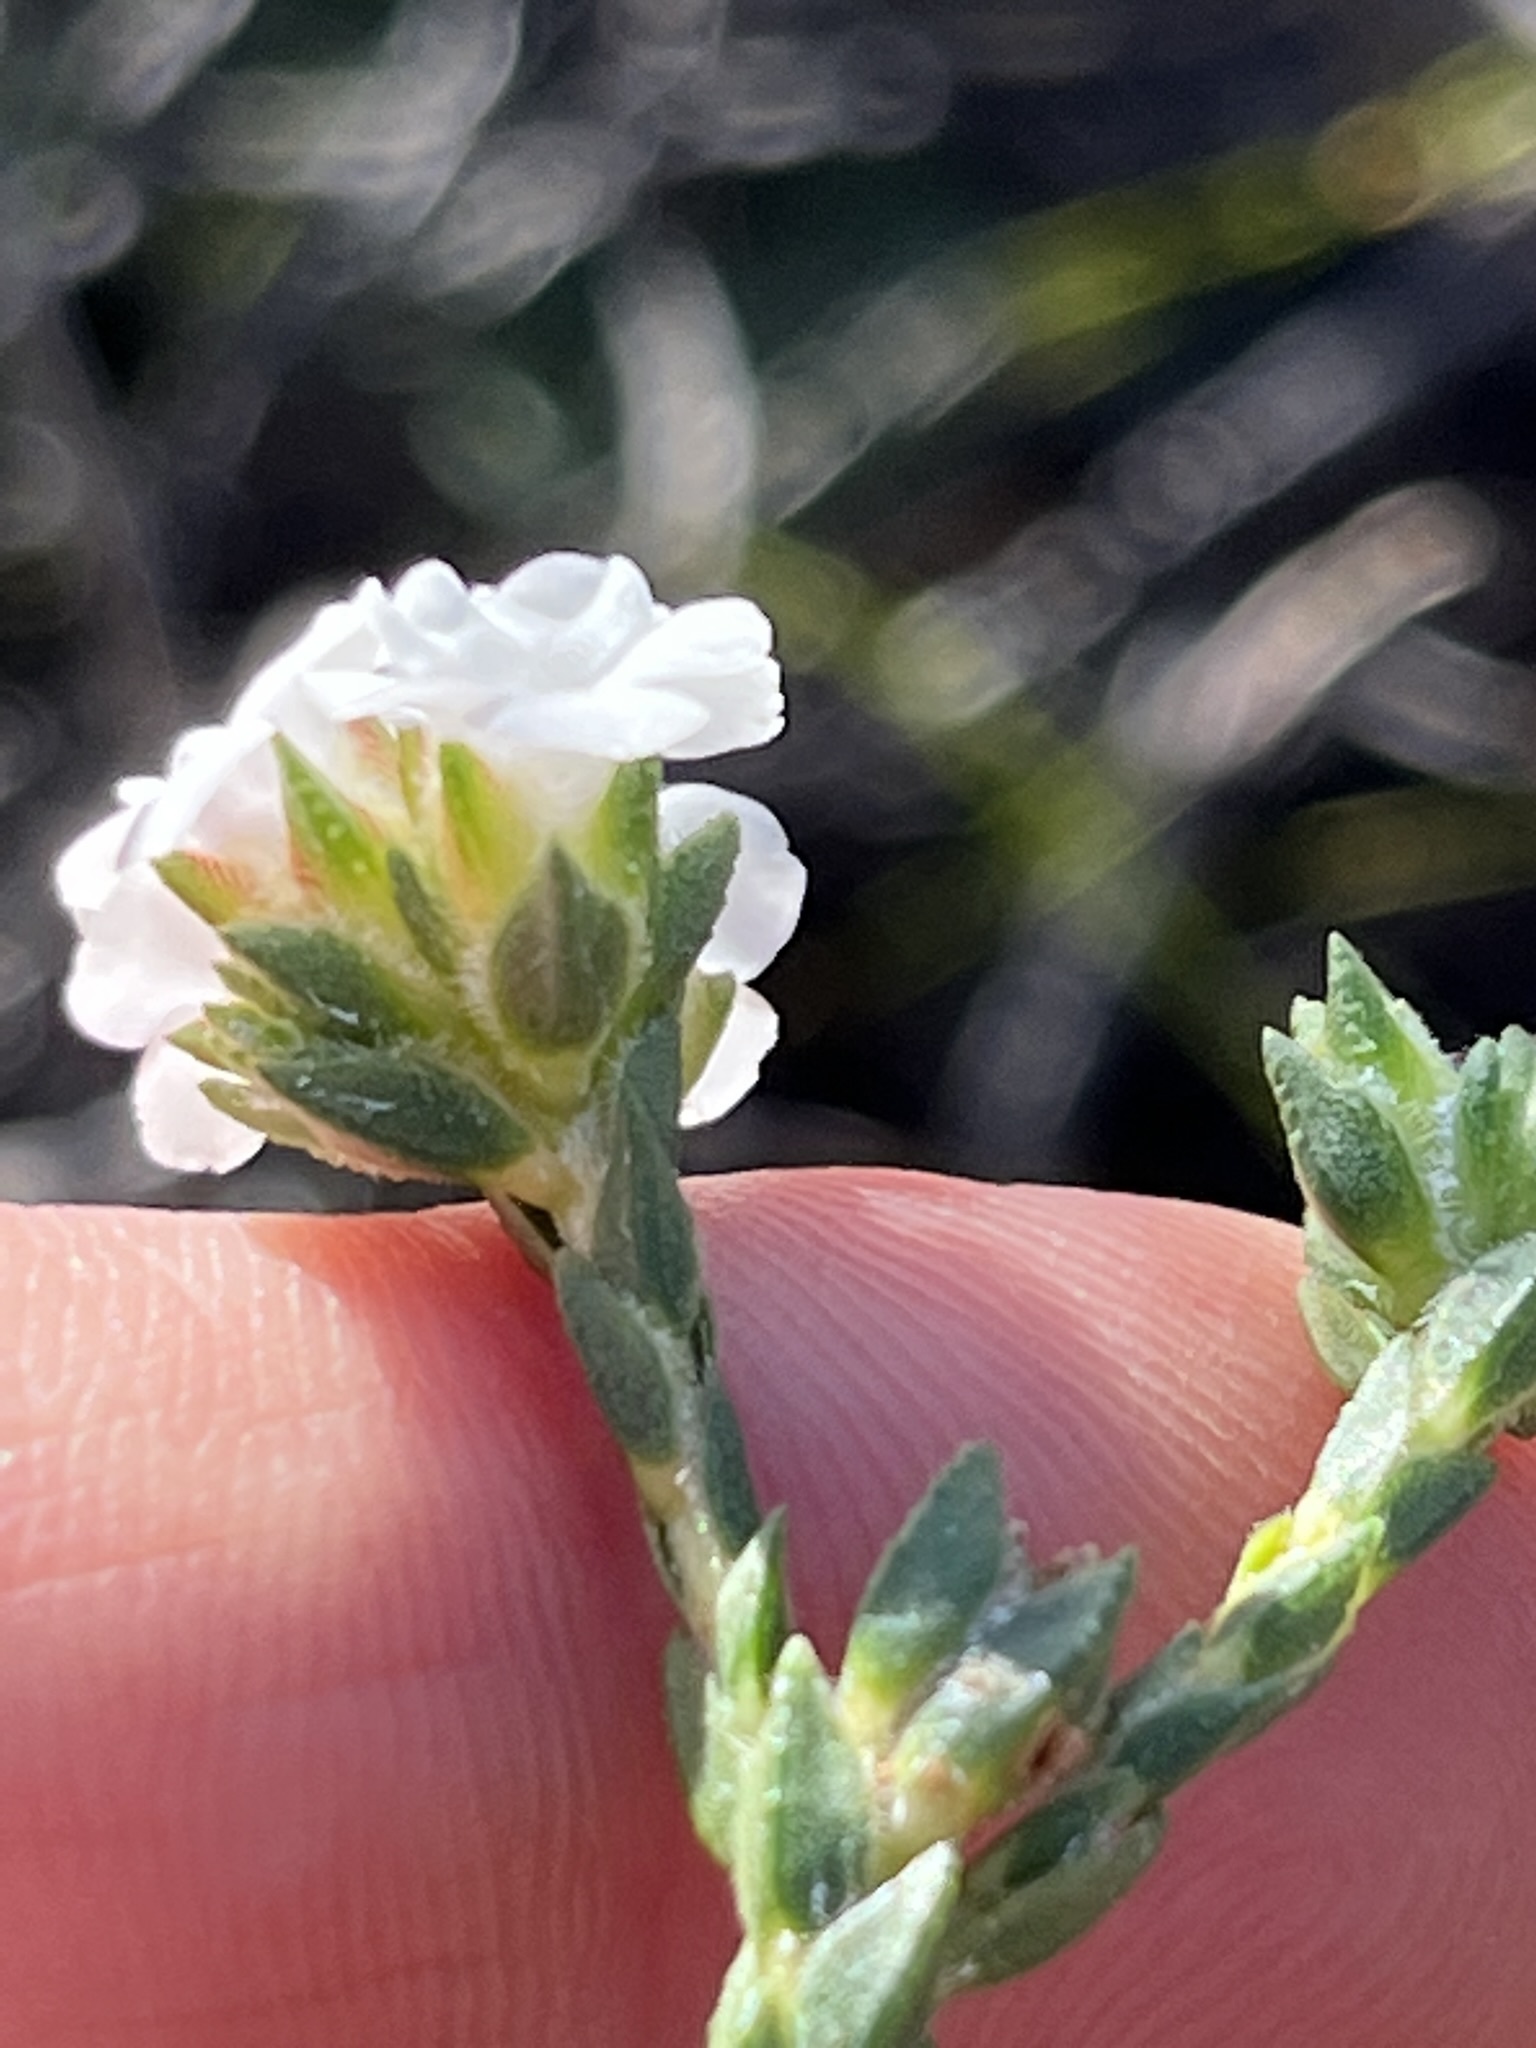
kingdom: Plantae
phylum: Tracheophyta
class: Magnoliopsida
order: Sapindales
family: Rutaceae
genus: Euchaetis
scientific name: Euchaetis scabricosta
